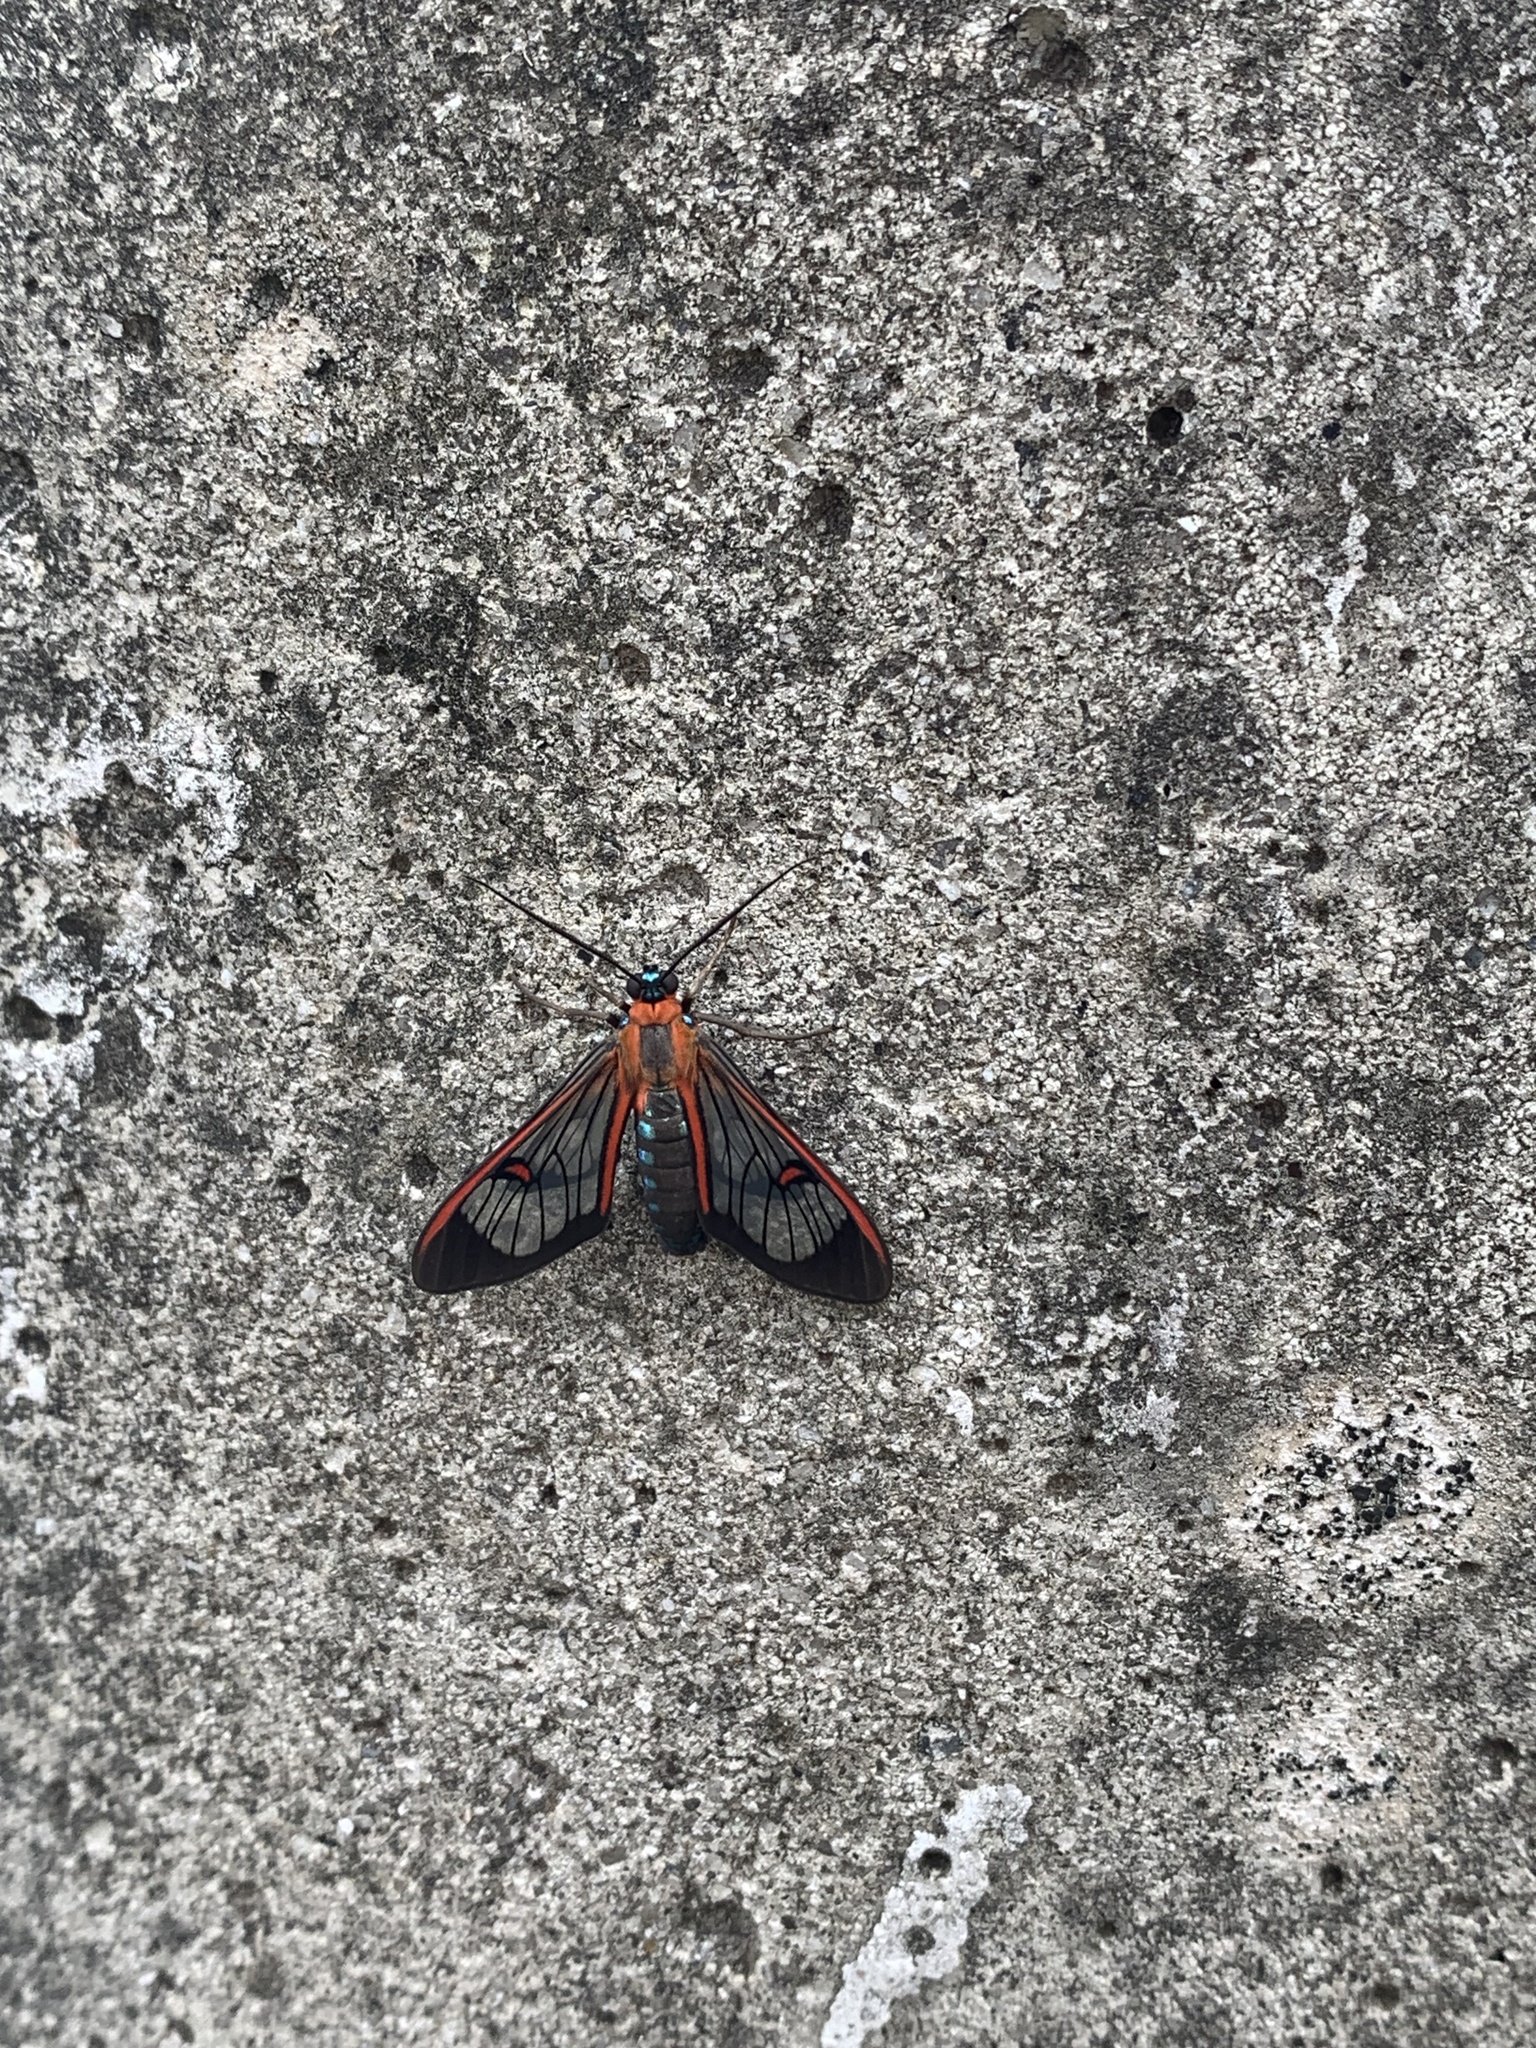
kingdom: Animalia
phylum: Arthropoda
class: Insecta
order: Lepidoptera
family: Erebidae
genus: Lepidoneiva
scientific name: Lepidoneiva erubescens
